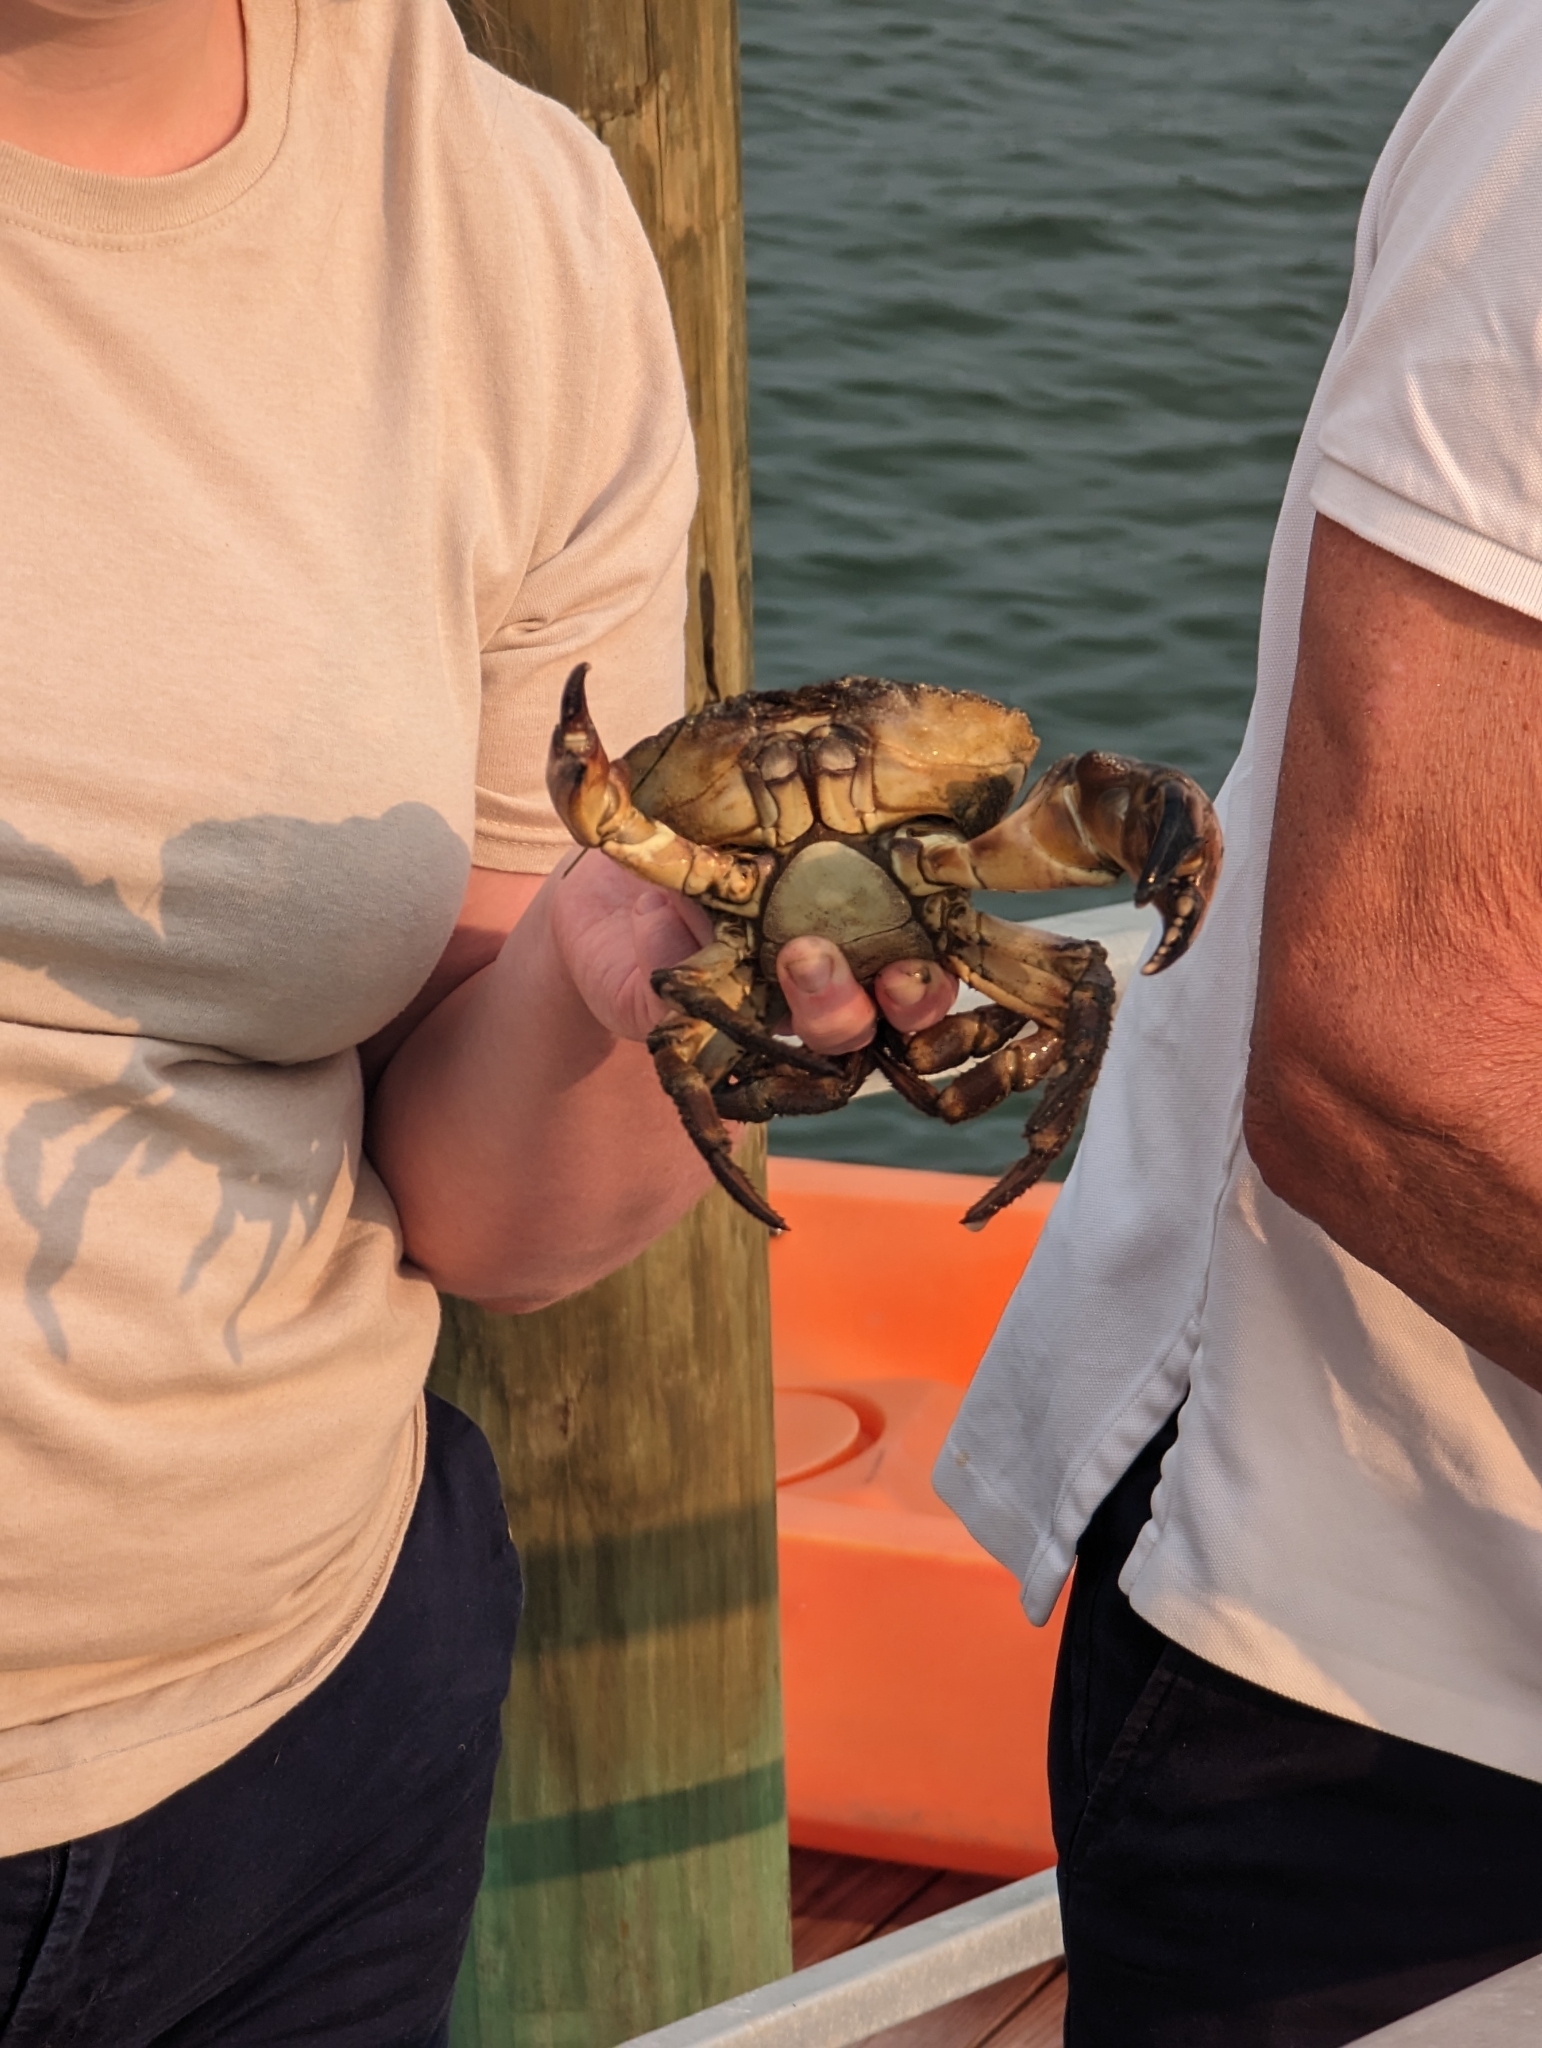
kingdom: Animalia
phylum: Arthropoda
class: Malacostraca
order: Decapoda
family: Menippidae
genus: Menippe
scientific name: Menippe mercenaria
